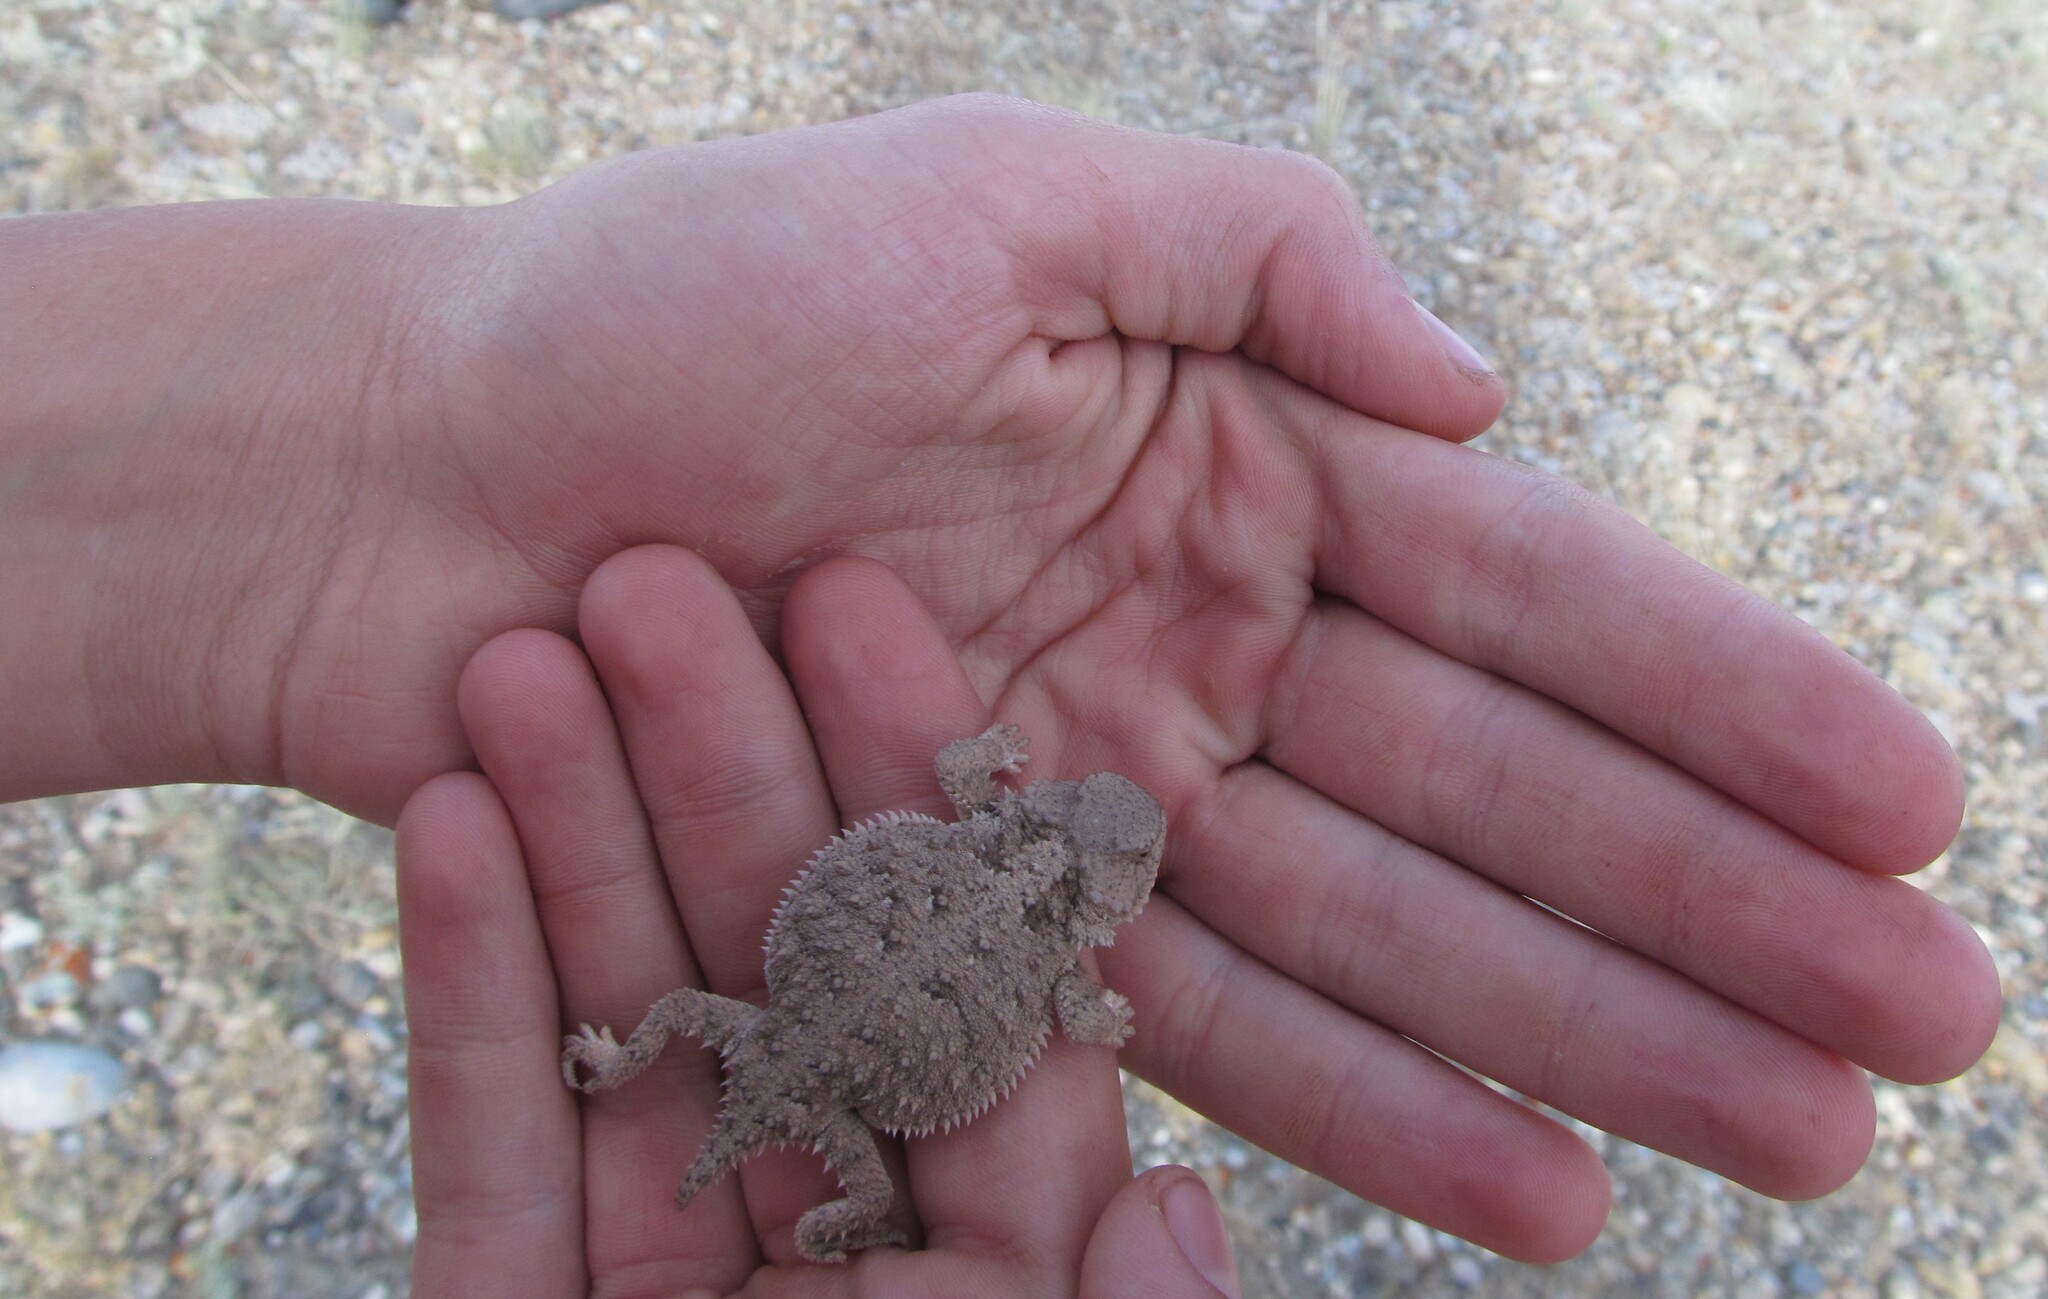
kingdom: Animalia
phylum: Chordata
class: Squamata
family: Phrynosomatidae
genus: Phrynosoma
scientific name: Phrynosoma hernandesi
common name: Greater short-horned lizard
